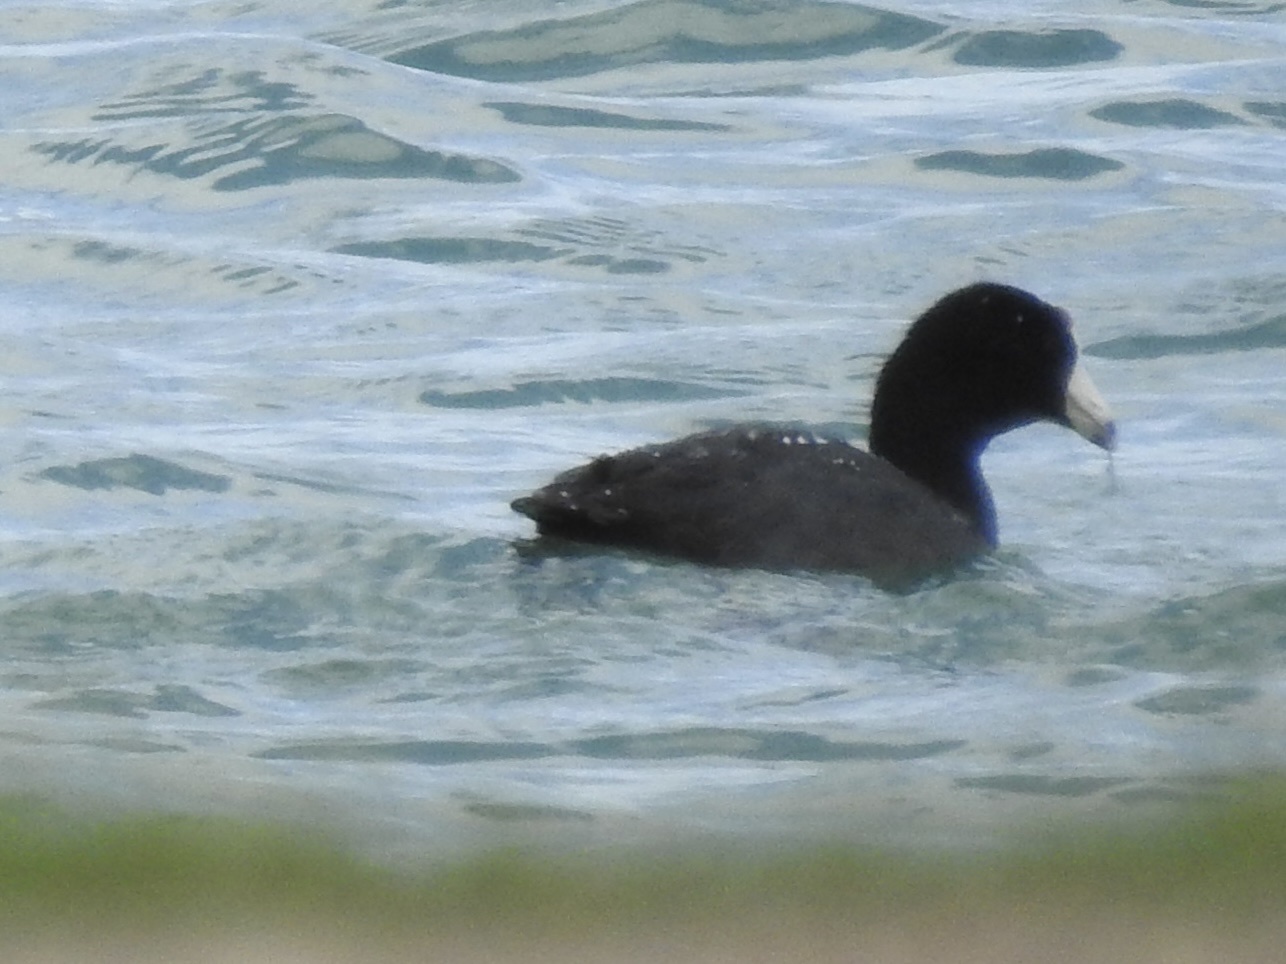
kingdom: Animalia
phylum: Chordata
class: Aves
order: Gruiformes
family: Rallidae
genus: Fulica
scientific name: Fulica americana
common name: American coot
